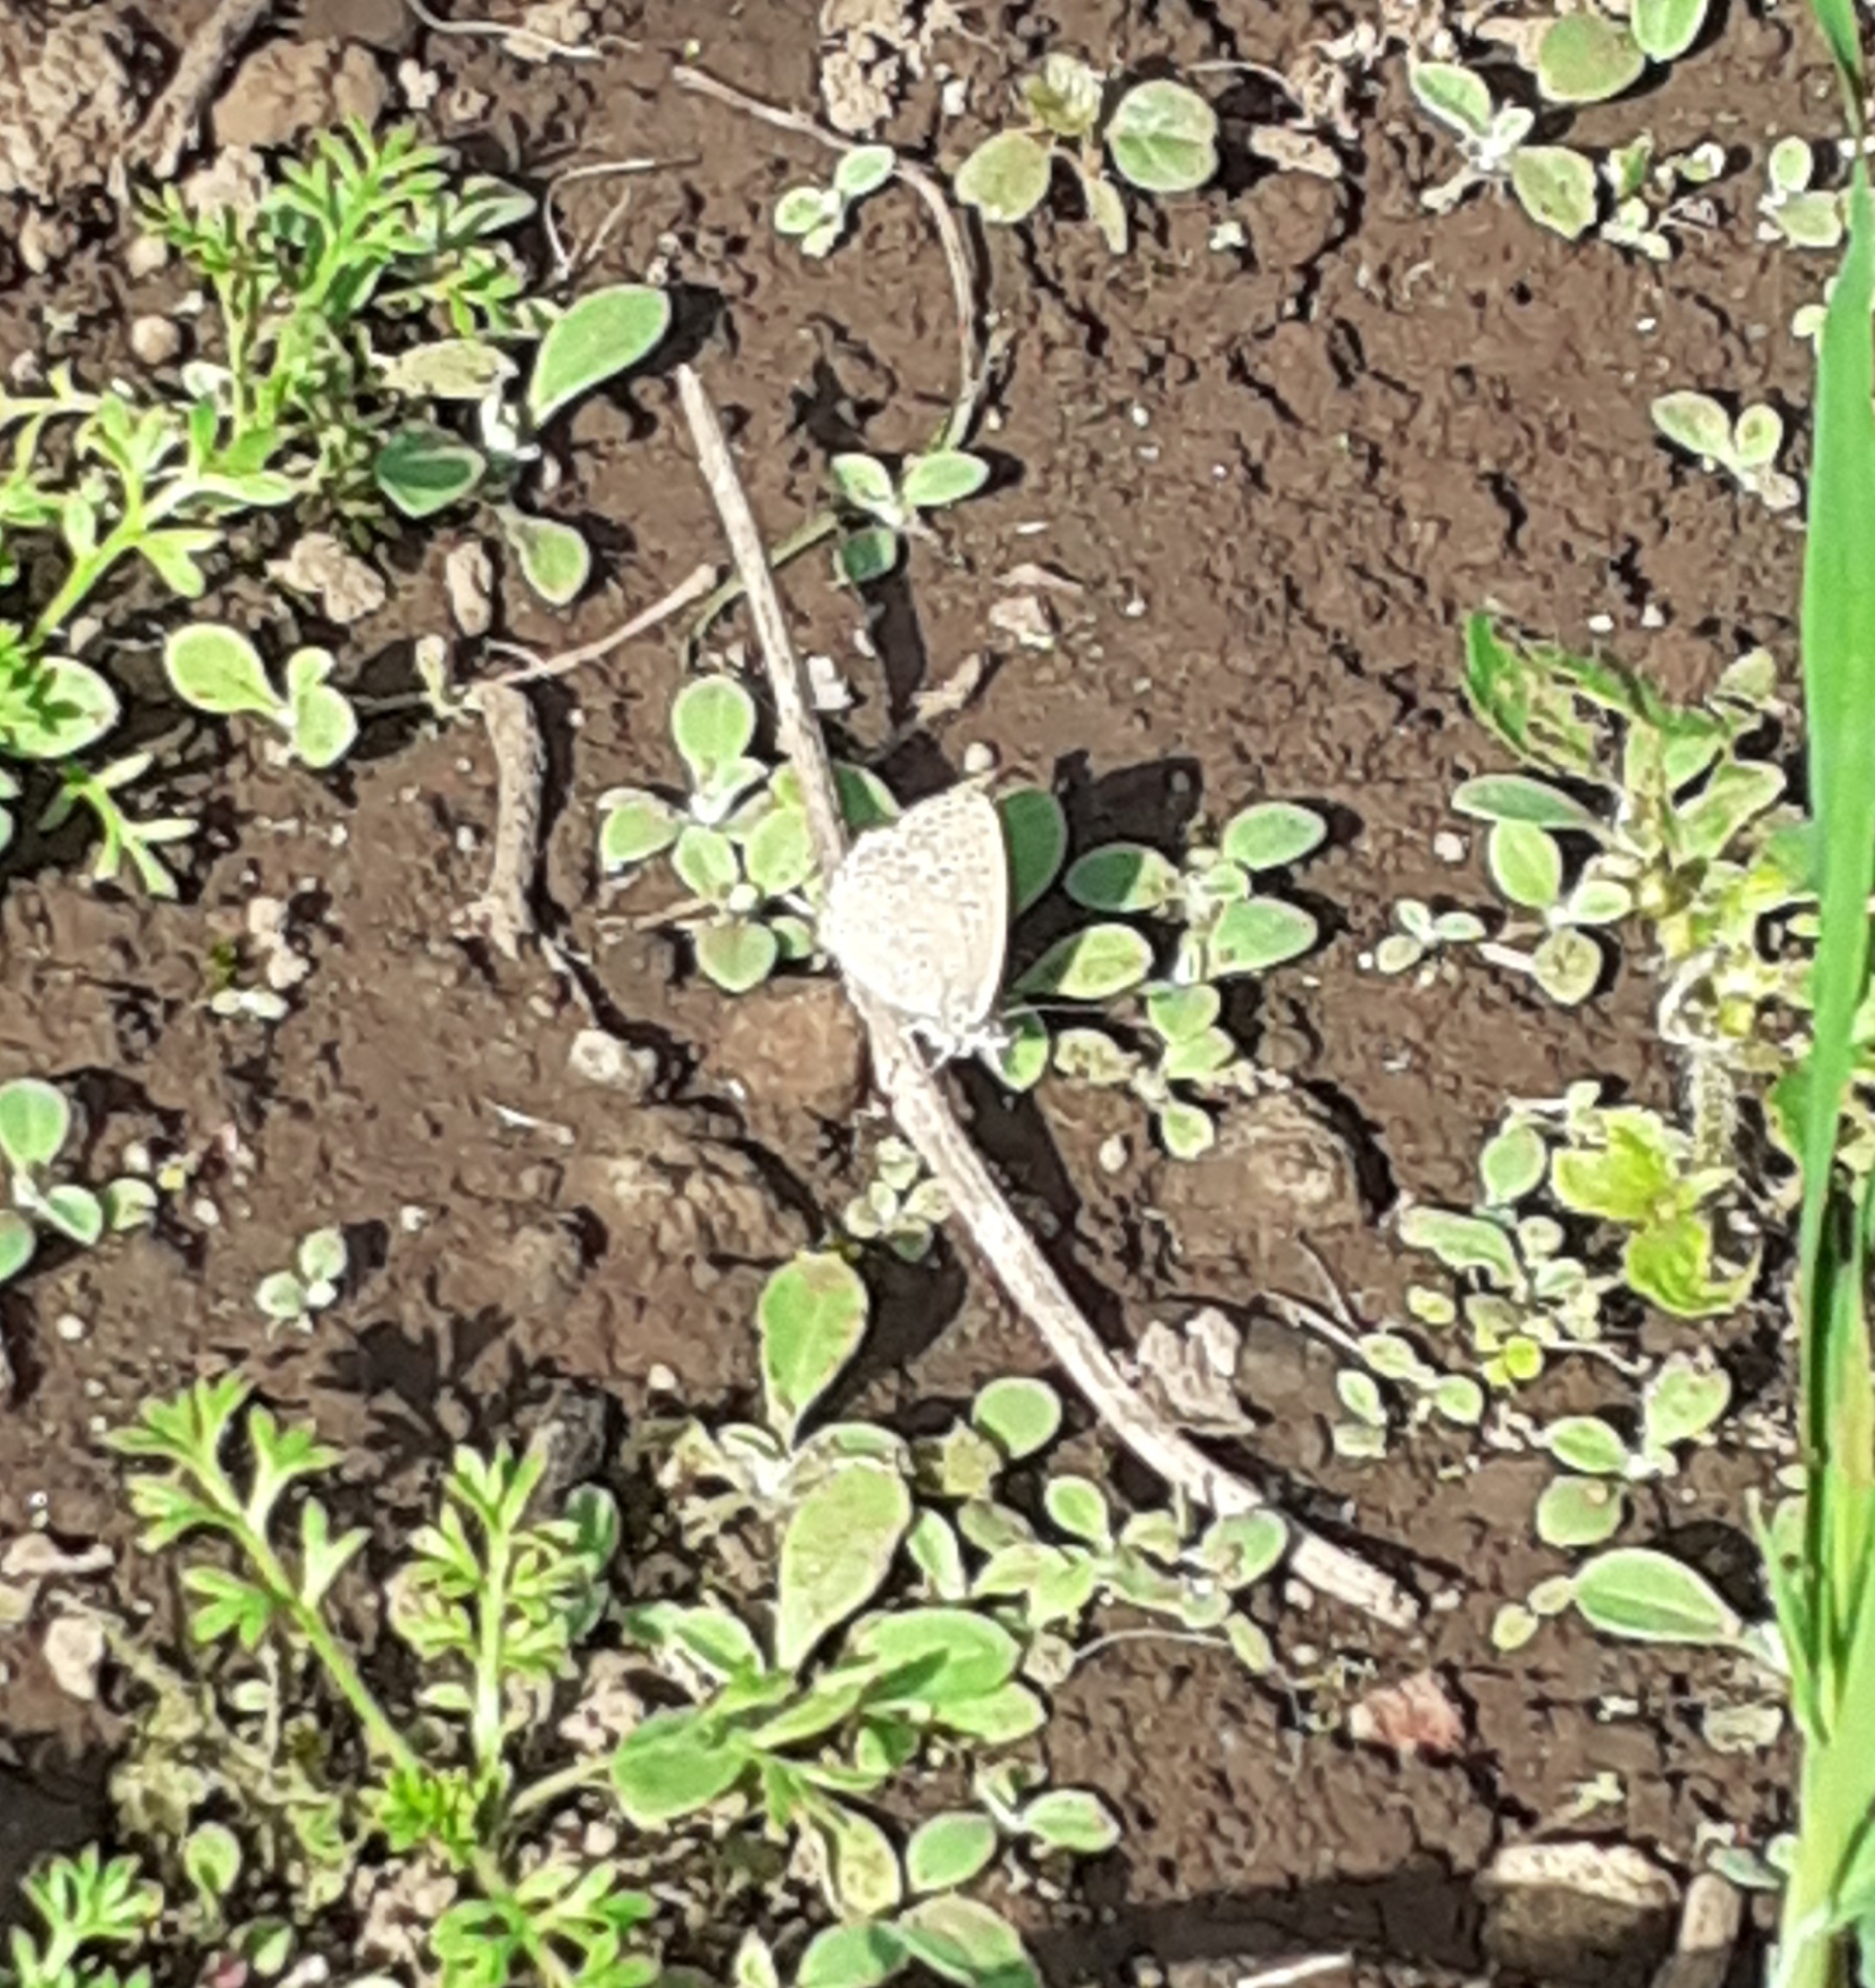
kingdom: Animalia
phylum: Arthropoda
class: Insecta
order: Lepidoptera
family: Lycaenidae
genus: Zizeeria
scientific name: Zizeeria knysna
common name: African grass blue
